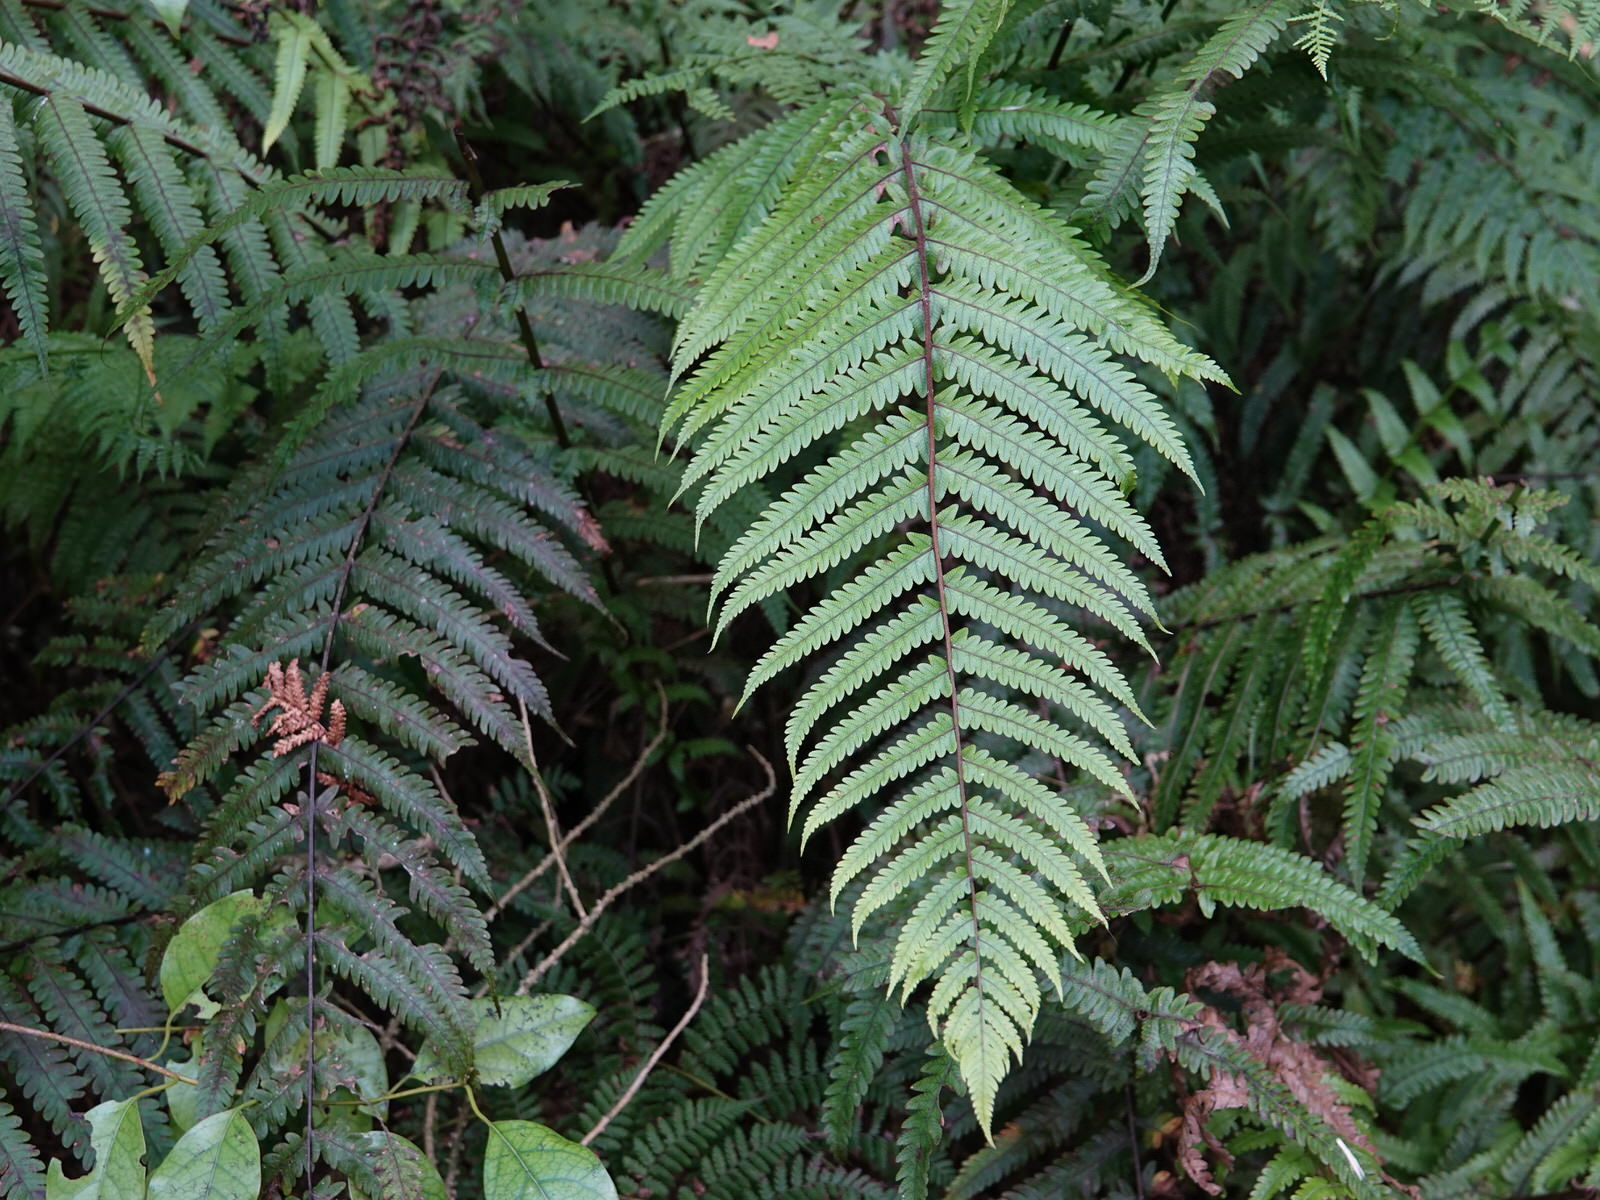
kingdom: Plantae
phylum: Tracheophyta
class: Polypodiopsida
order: Polypodiales
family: Thelypteridaceae
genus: Pakau
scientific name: Pakau pennigera
